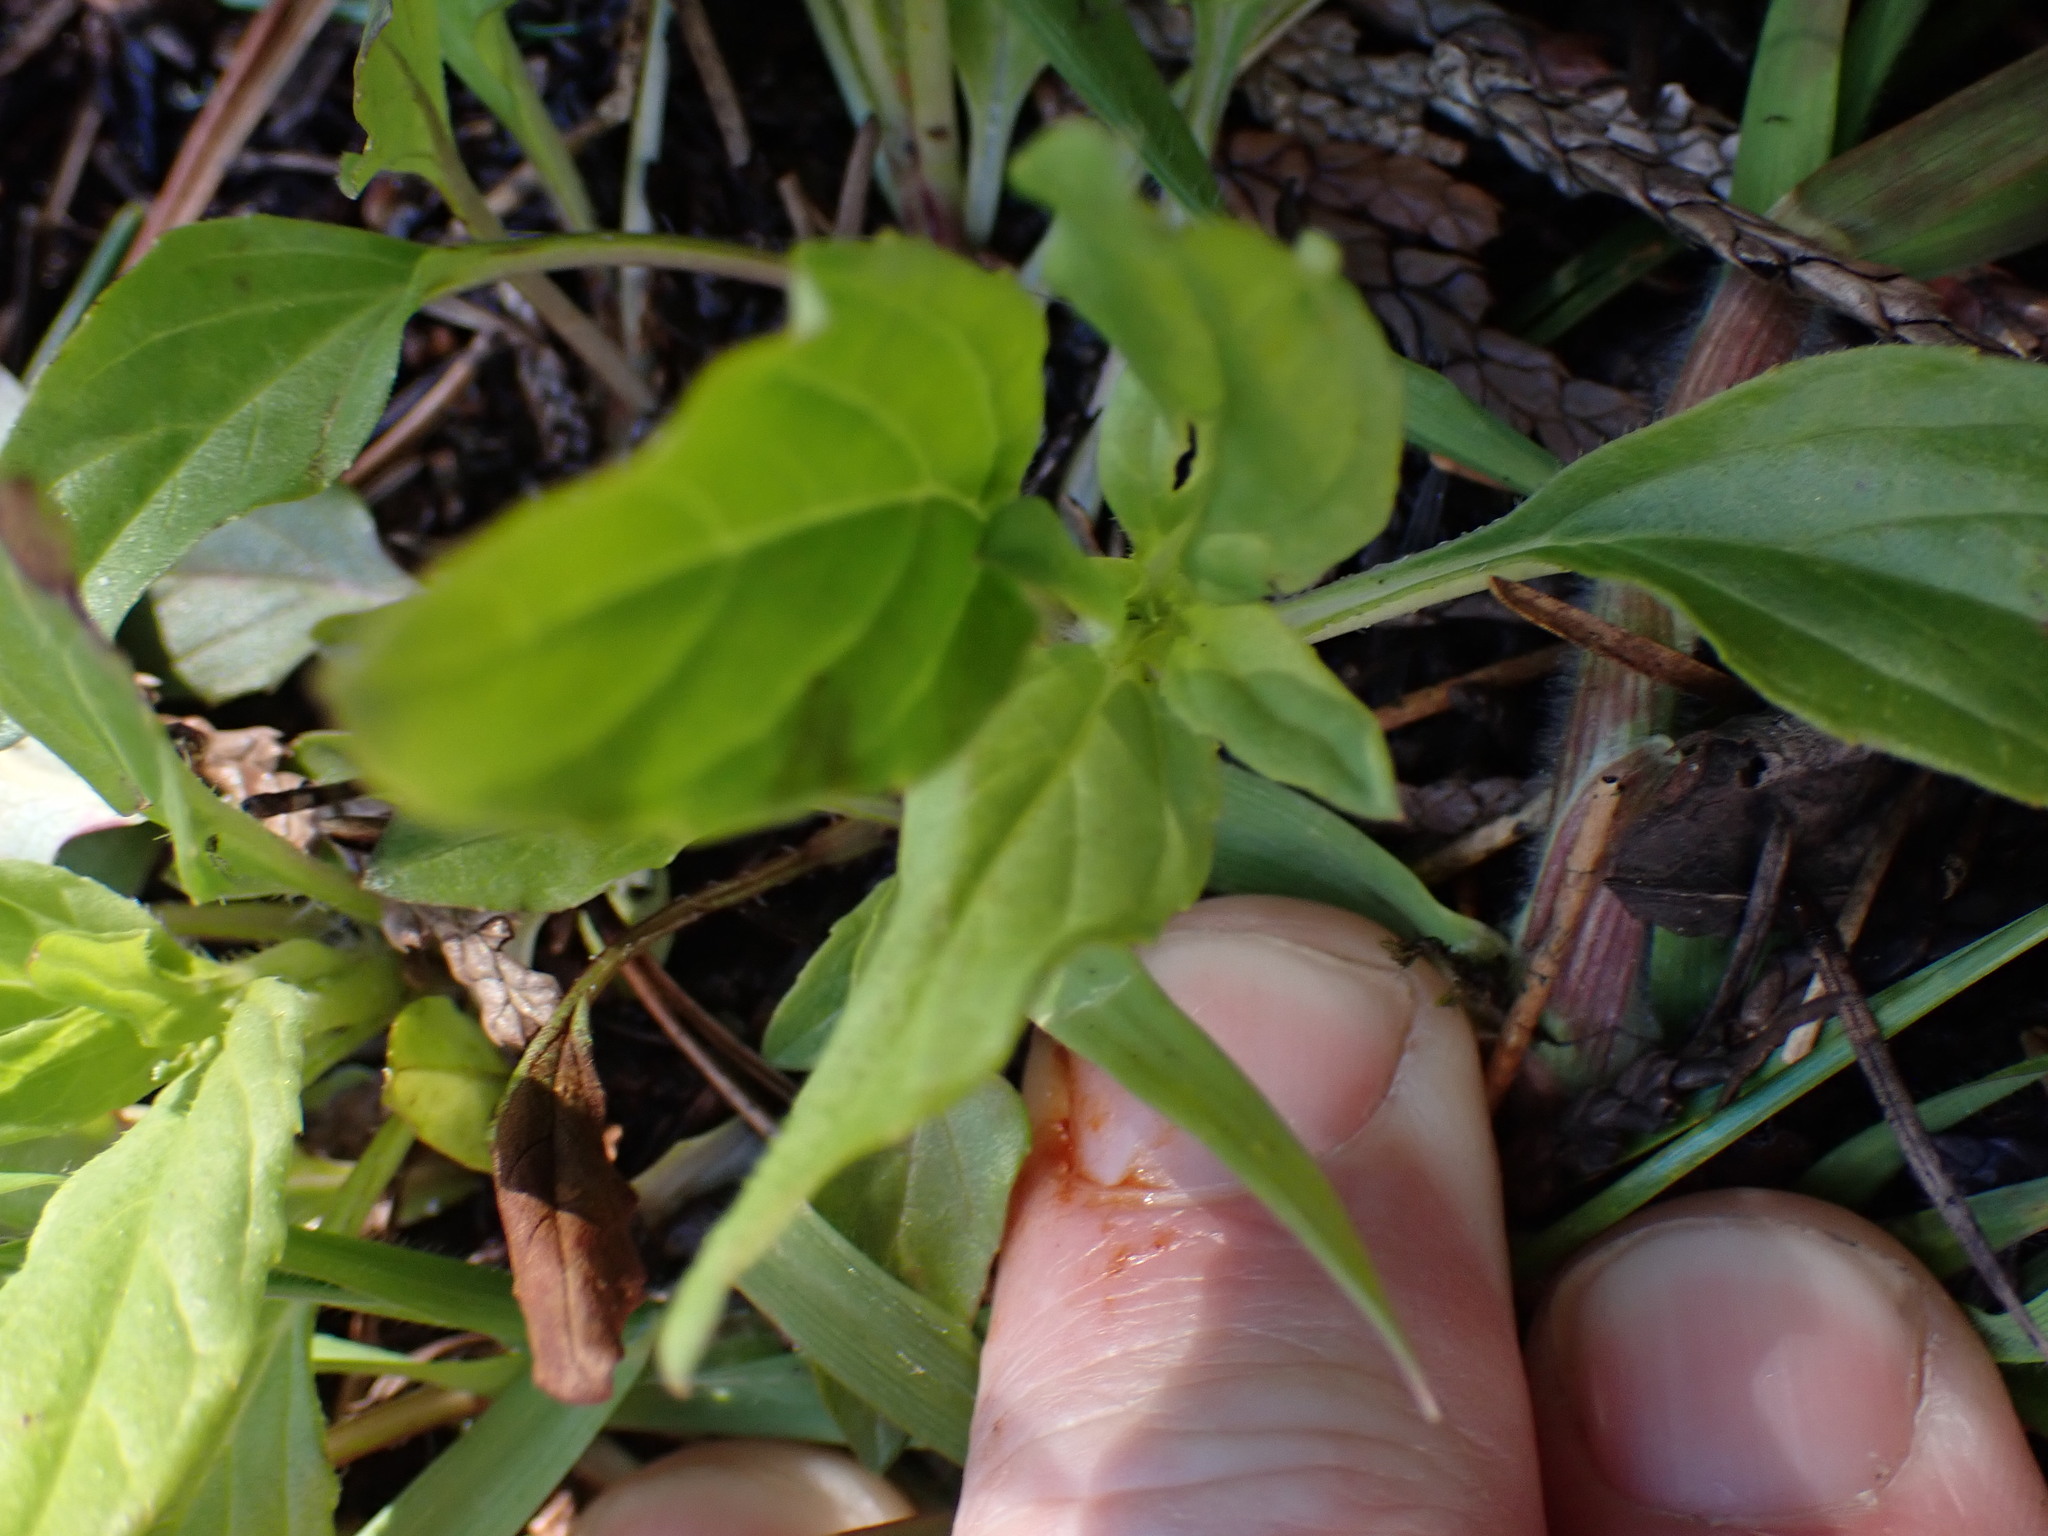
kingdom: Plantae
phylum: Tracheophyta
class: Magnoliopsida
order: Lamiales
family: Lamiaceae
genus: Prunella
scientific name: Prunella vulgaris
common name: Heal-all
